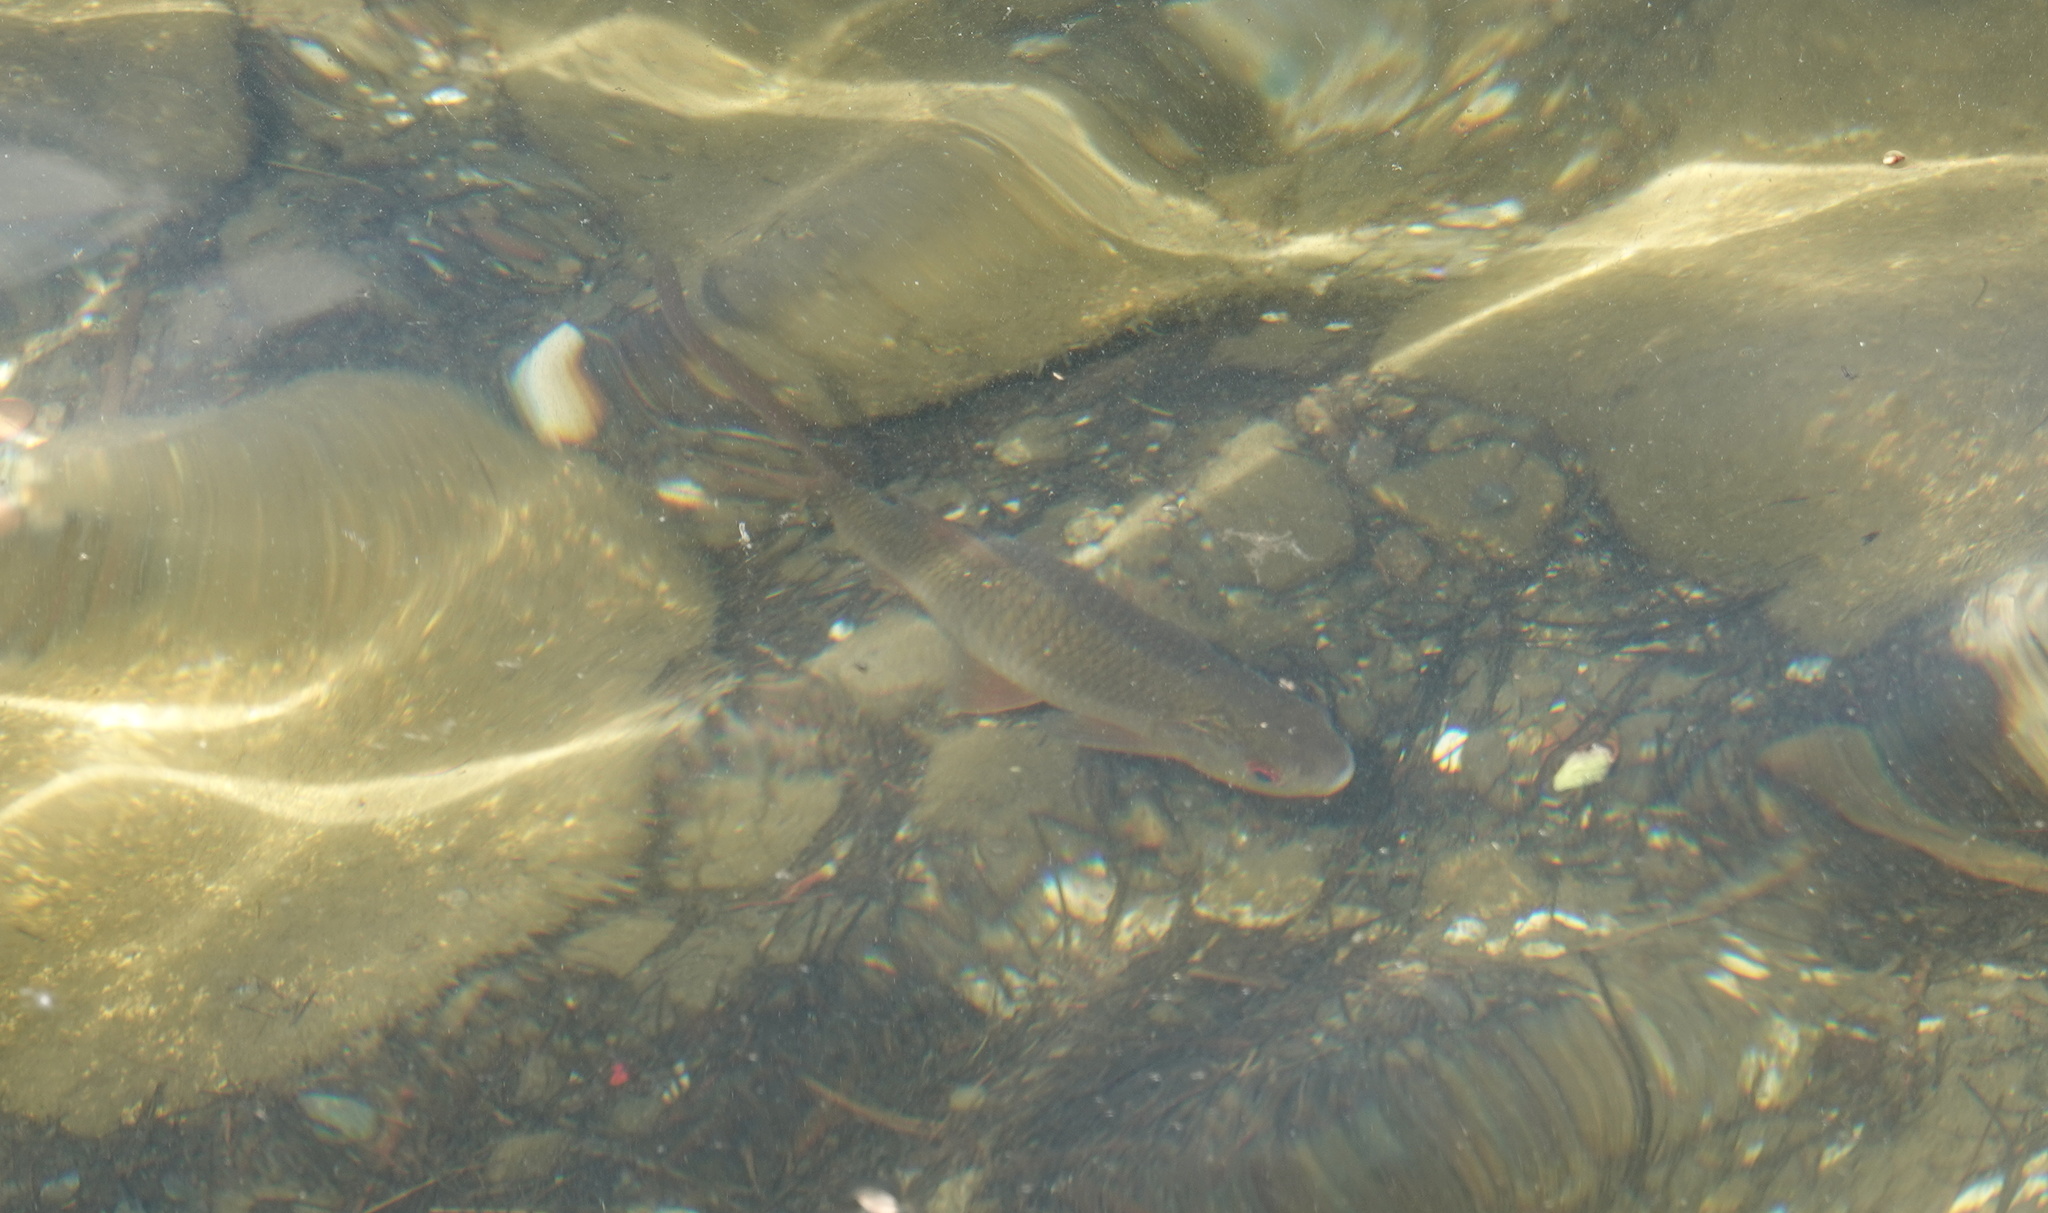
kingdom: Animalia
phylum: Chordata
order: Cypriniformes
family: Cyprinidae
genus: Rutilus
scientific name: Rutilus rutilus
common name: Roach
